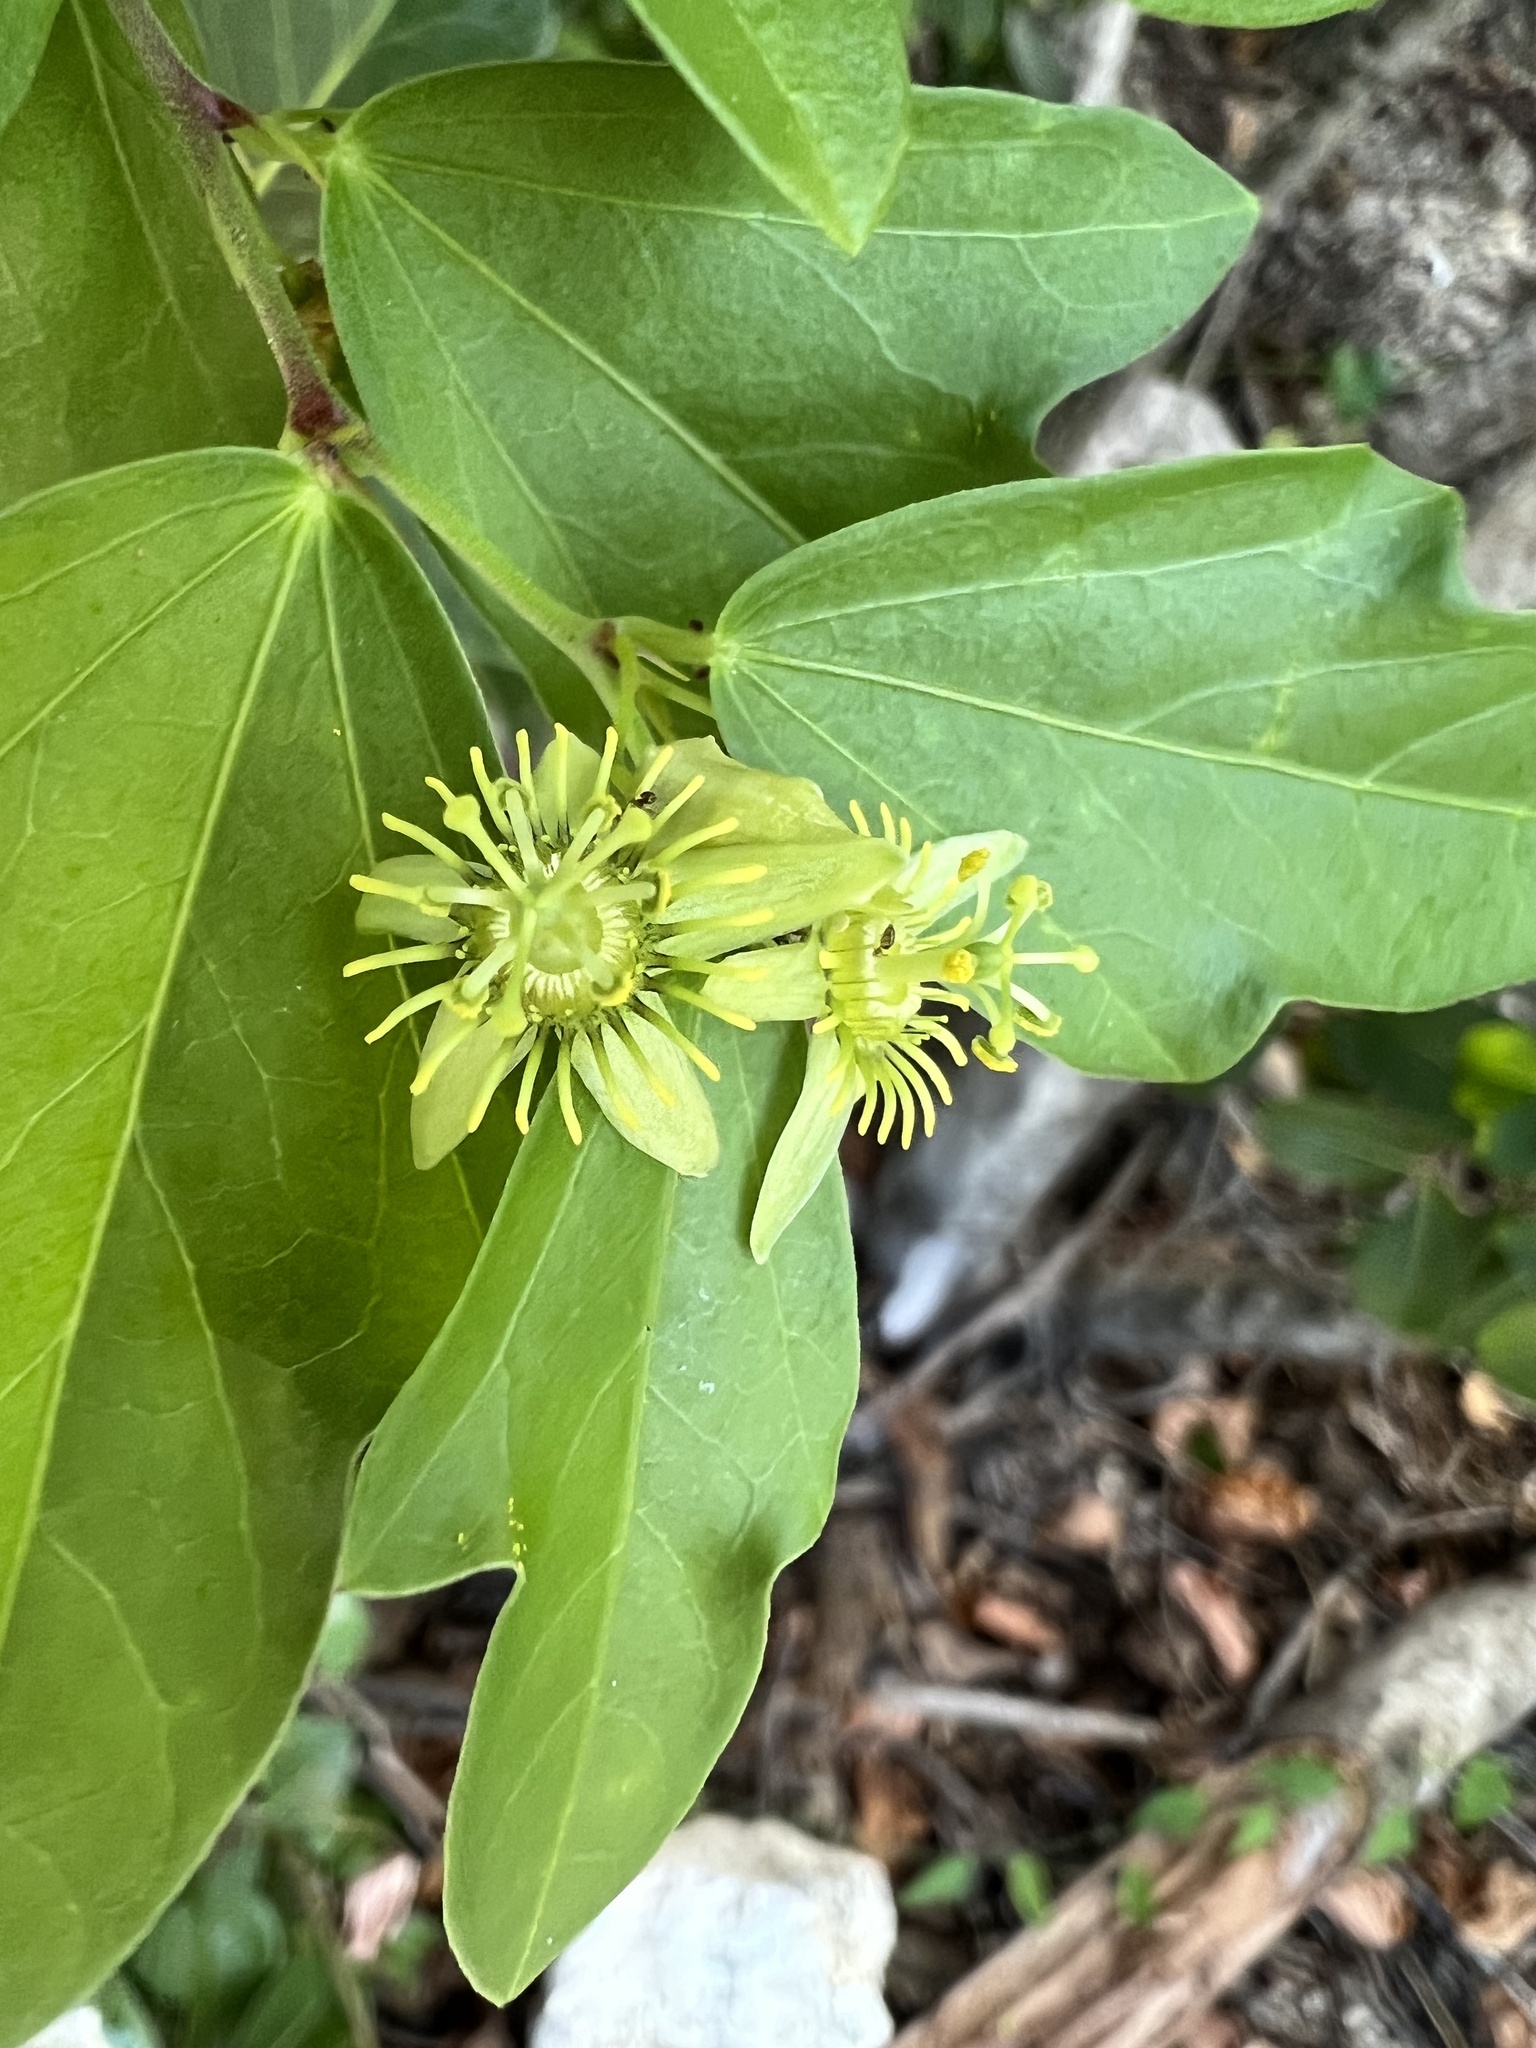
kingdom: Plantae
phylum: Tracheophyta
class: Magnoliopsida
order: Malpighiales
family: Passifloraceae
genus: Passiflora
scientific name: Passiflora pallida
